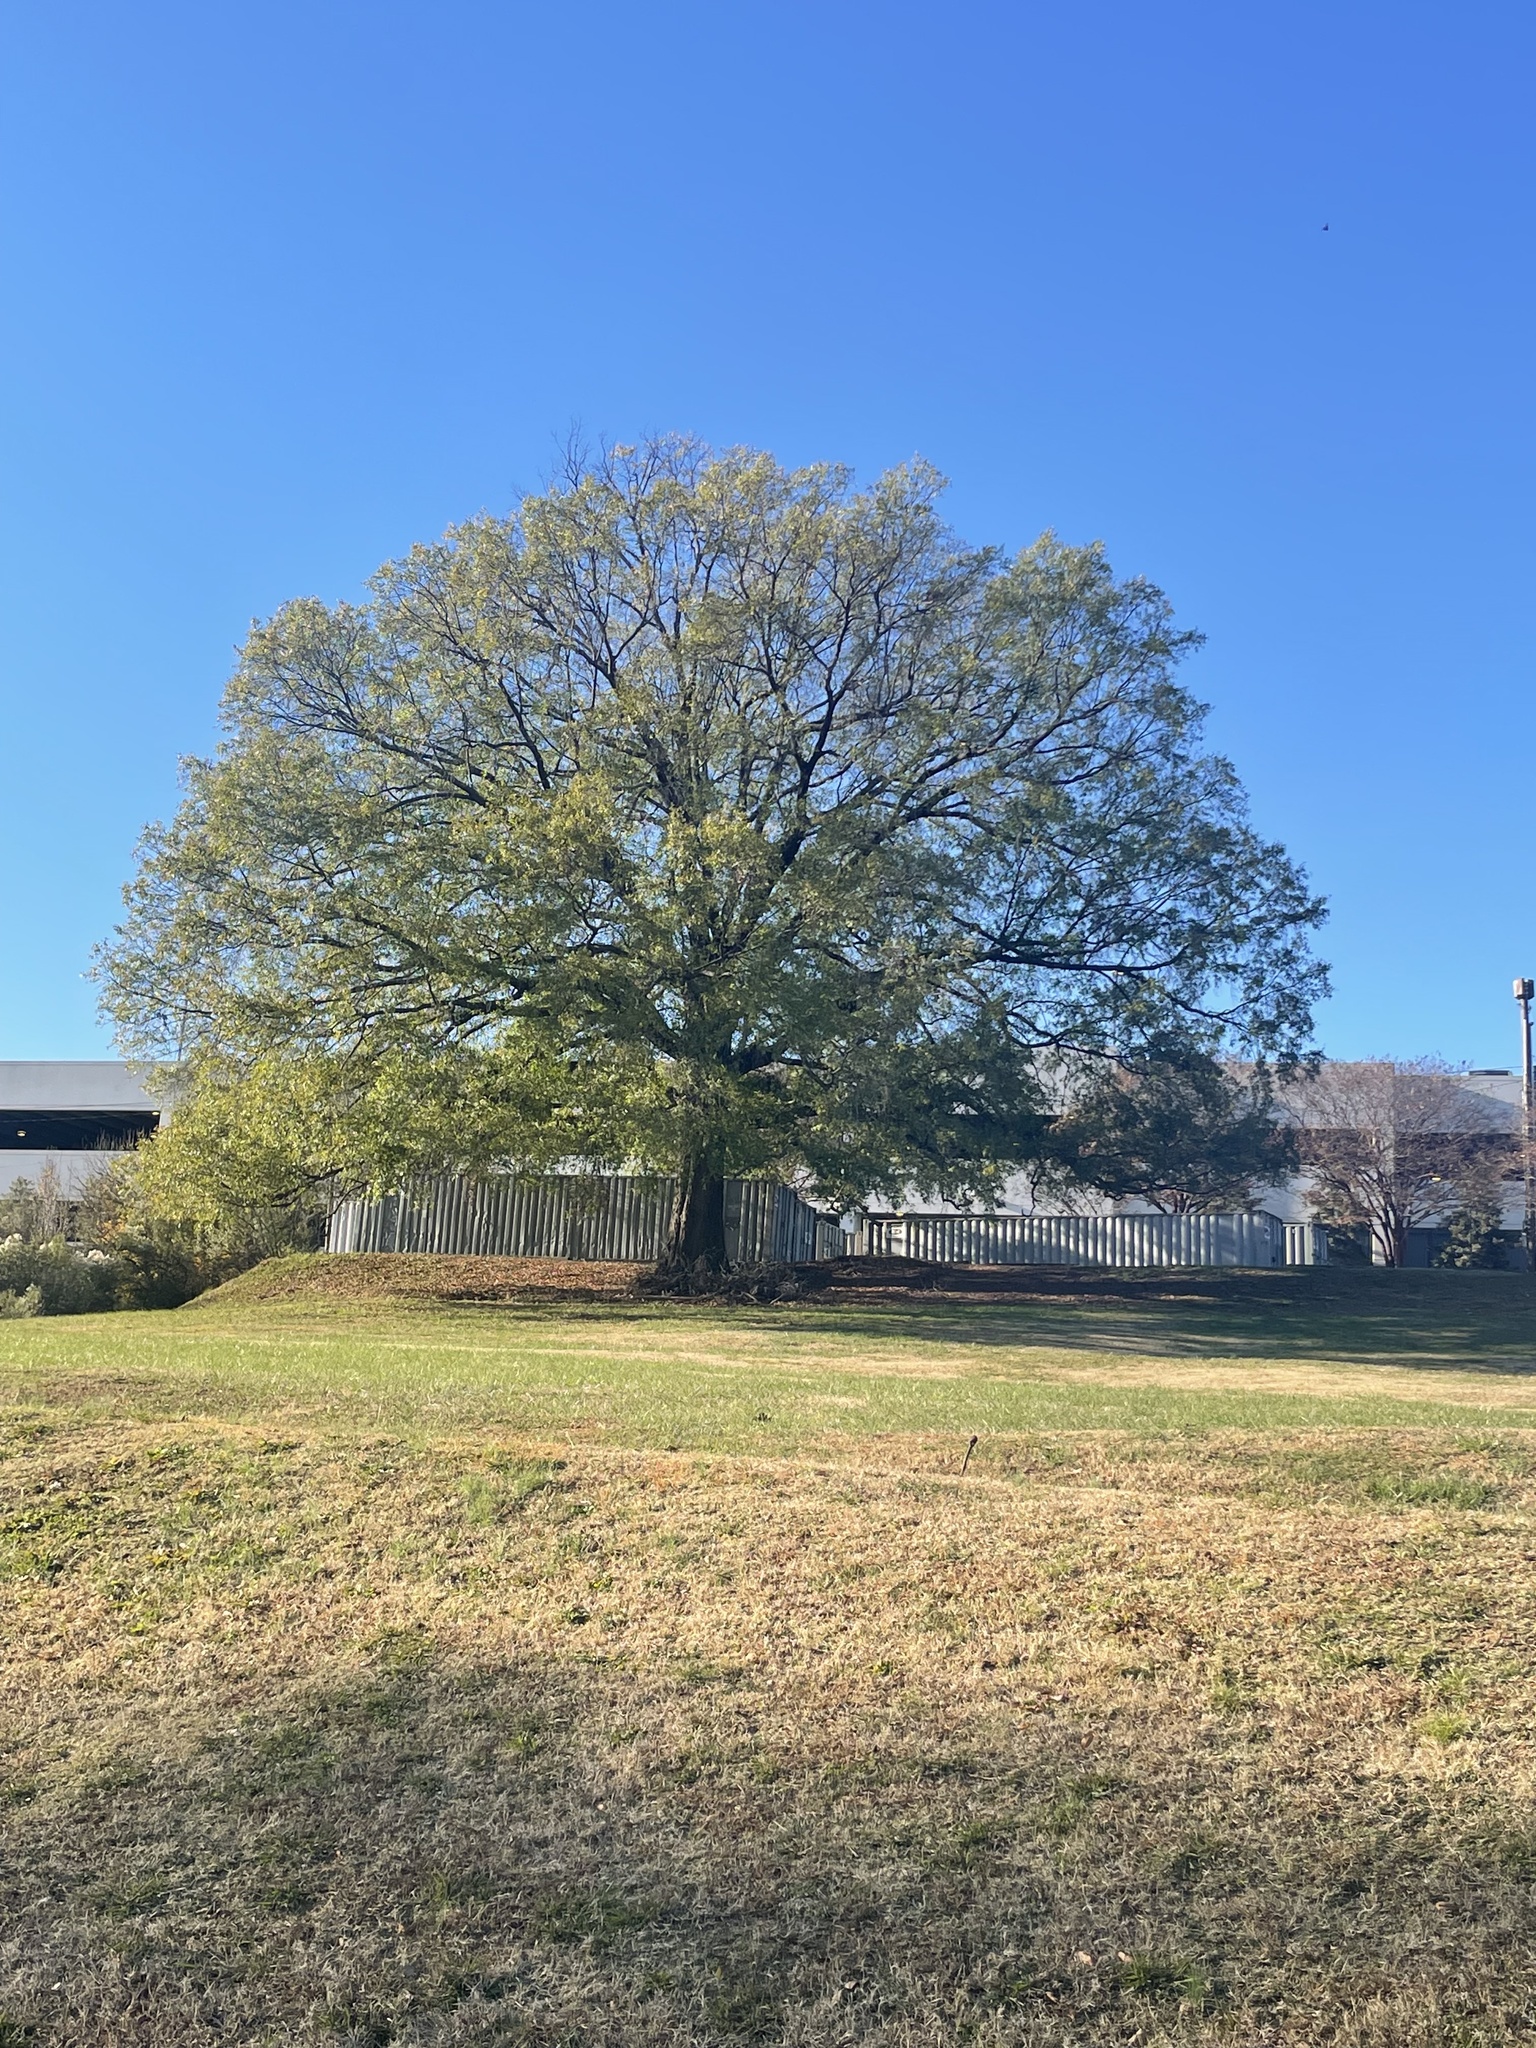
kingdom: Plantae
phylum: Tracheophyta
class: Magnoliopsida
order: Fagales
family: Fagaceae
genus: Quercus
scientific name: Quercus phellos
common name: Willow oak
